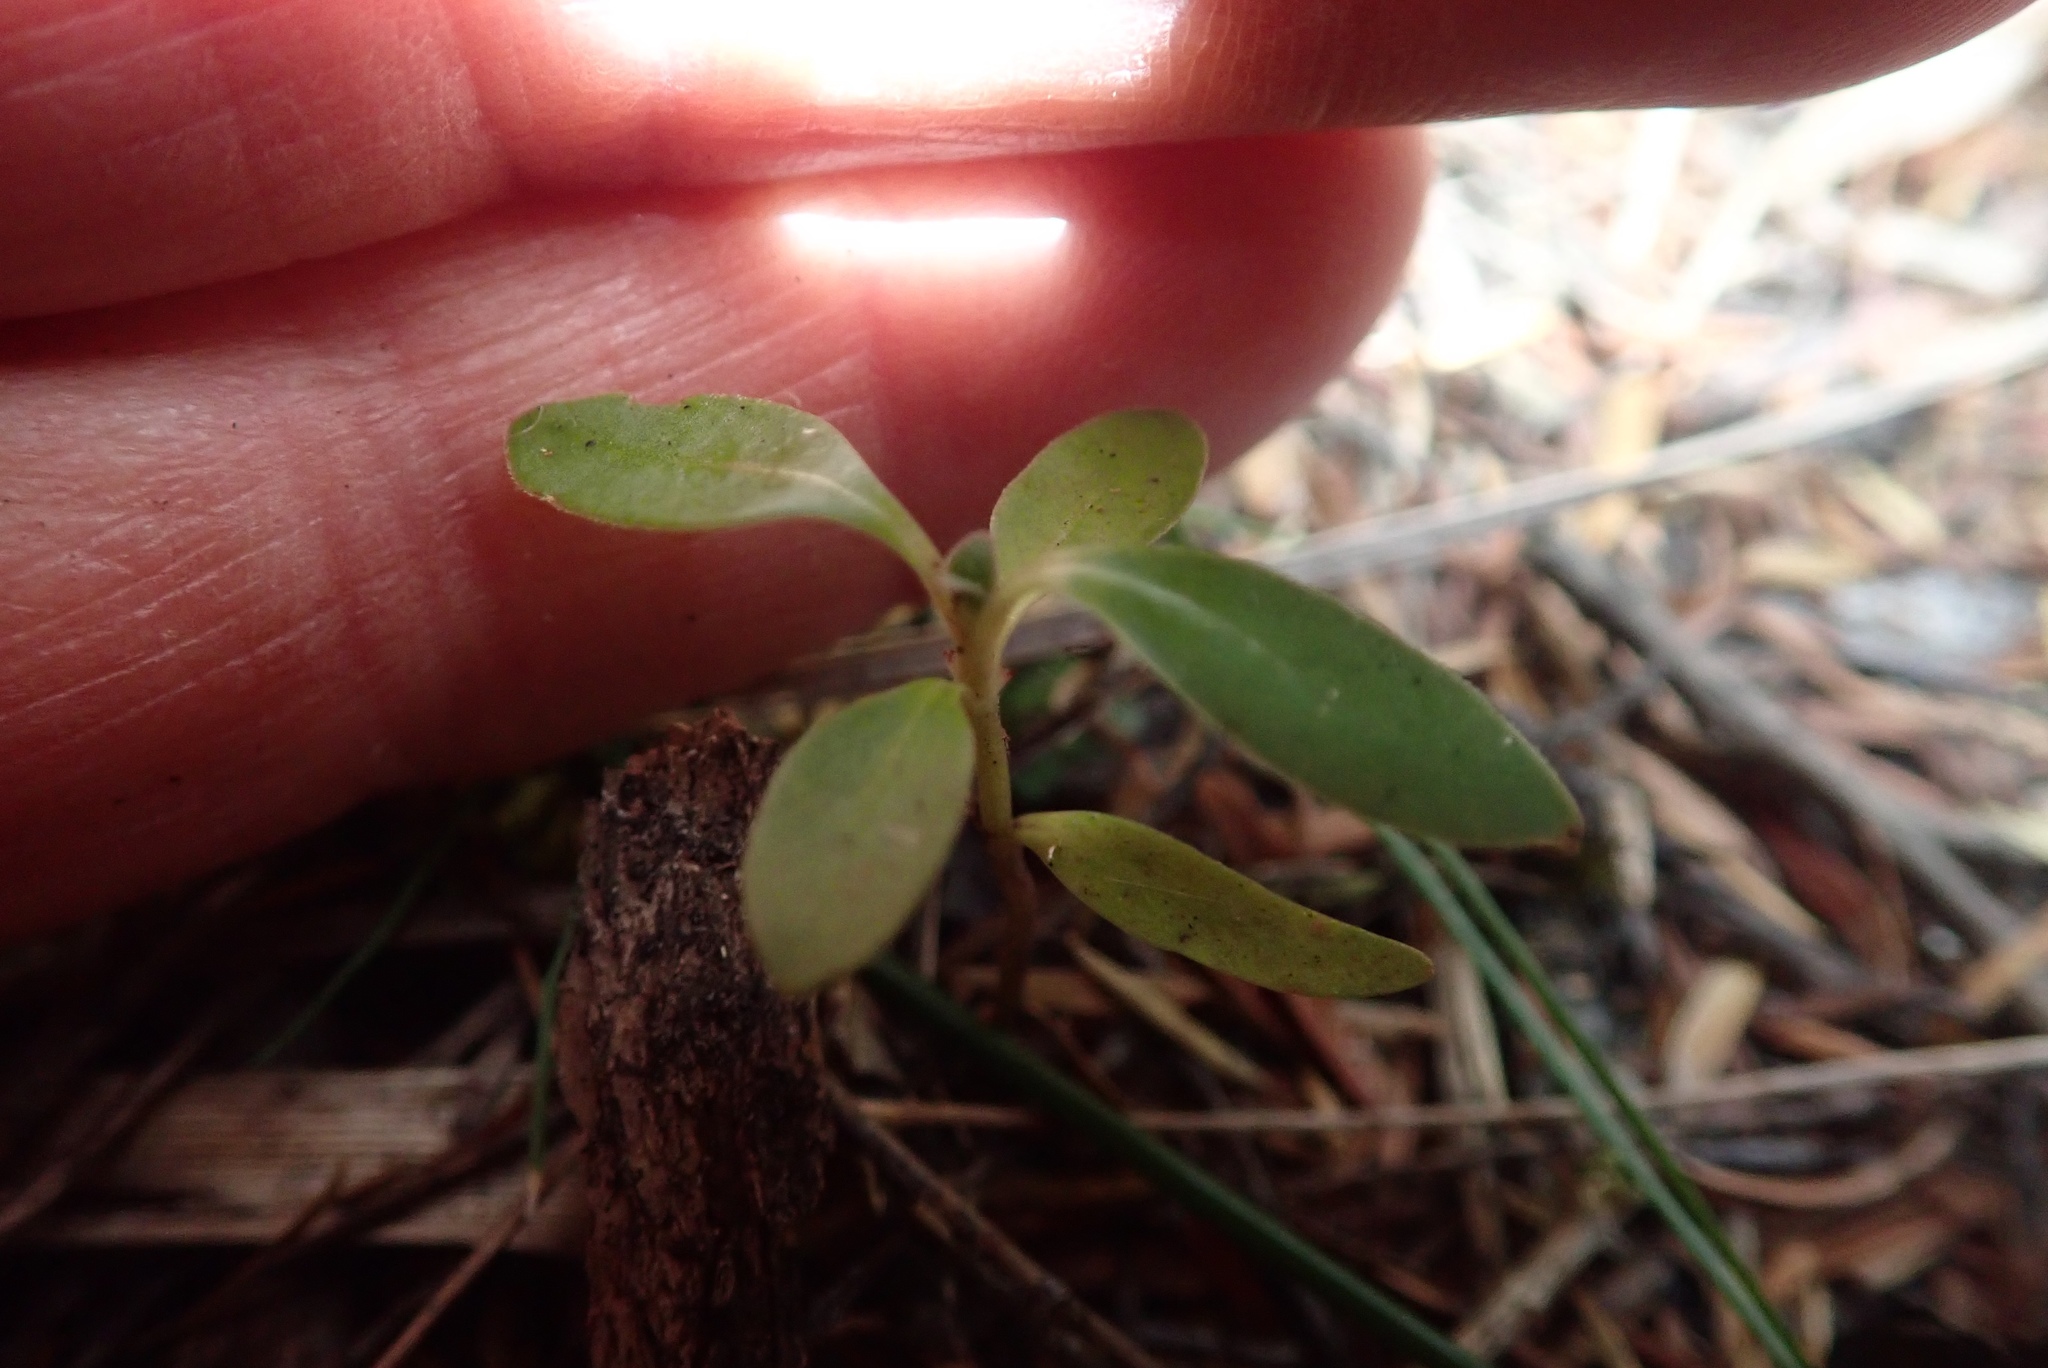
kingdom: Plantae
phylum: Tracheophyta
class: Magnoliopsida
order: Gentianales
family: Rubiaceae
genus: Coprosma
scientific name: Coprosma lucida
